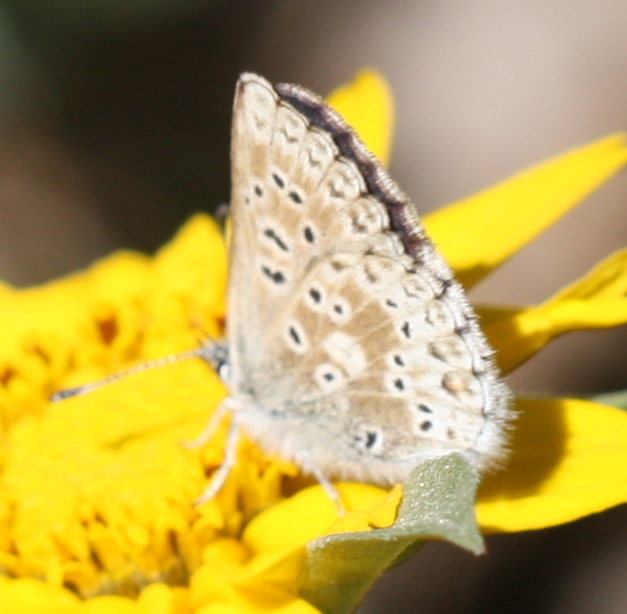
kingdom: Animalia
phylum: Arthropoda
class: Insecta
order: Lepidoptera
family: Lycaenidae
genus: Agriades
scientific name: Agriades podarce
